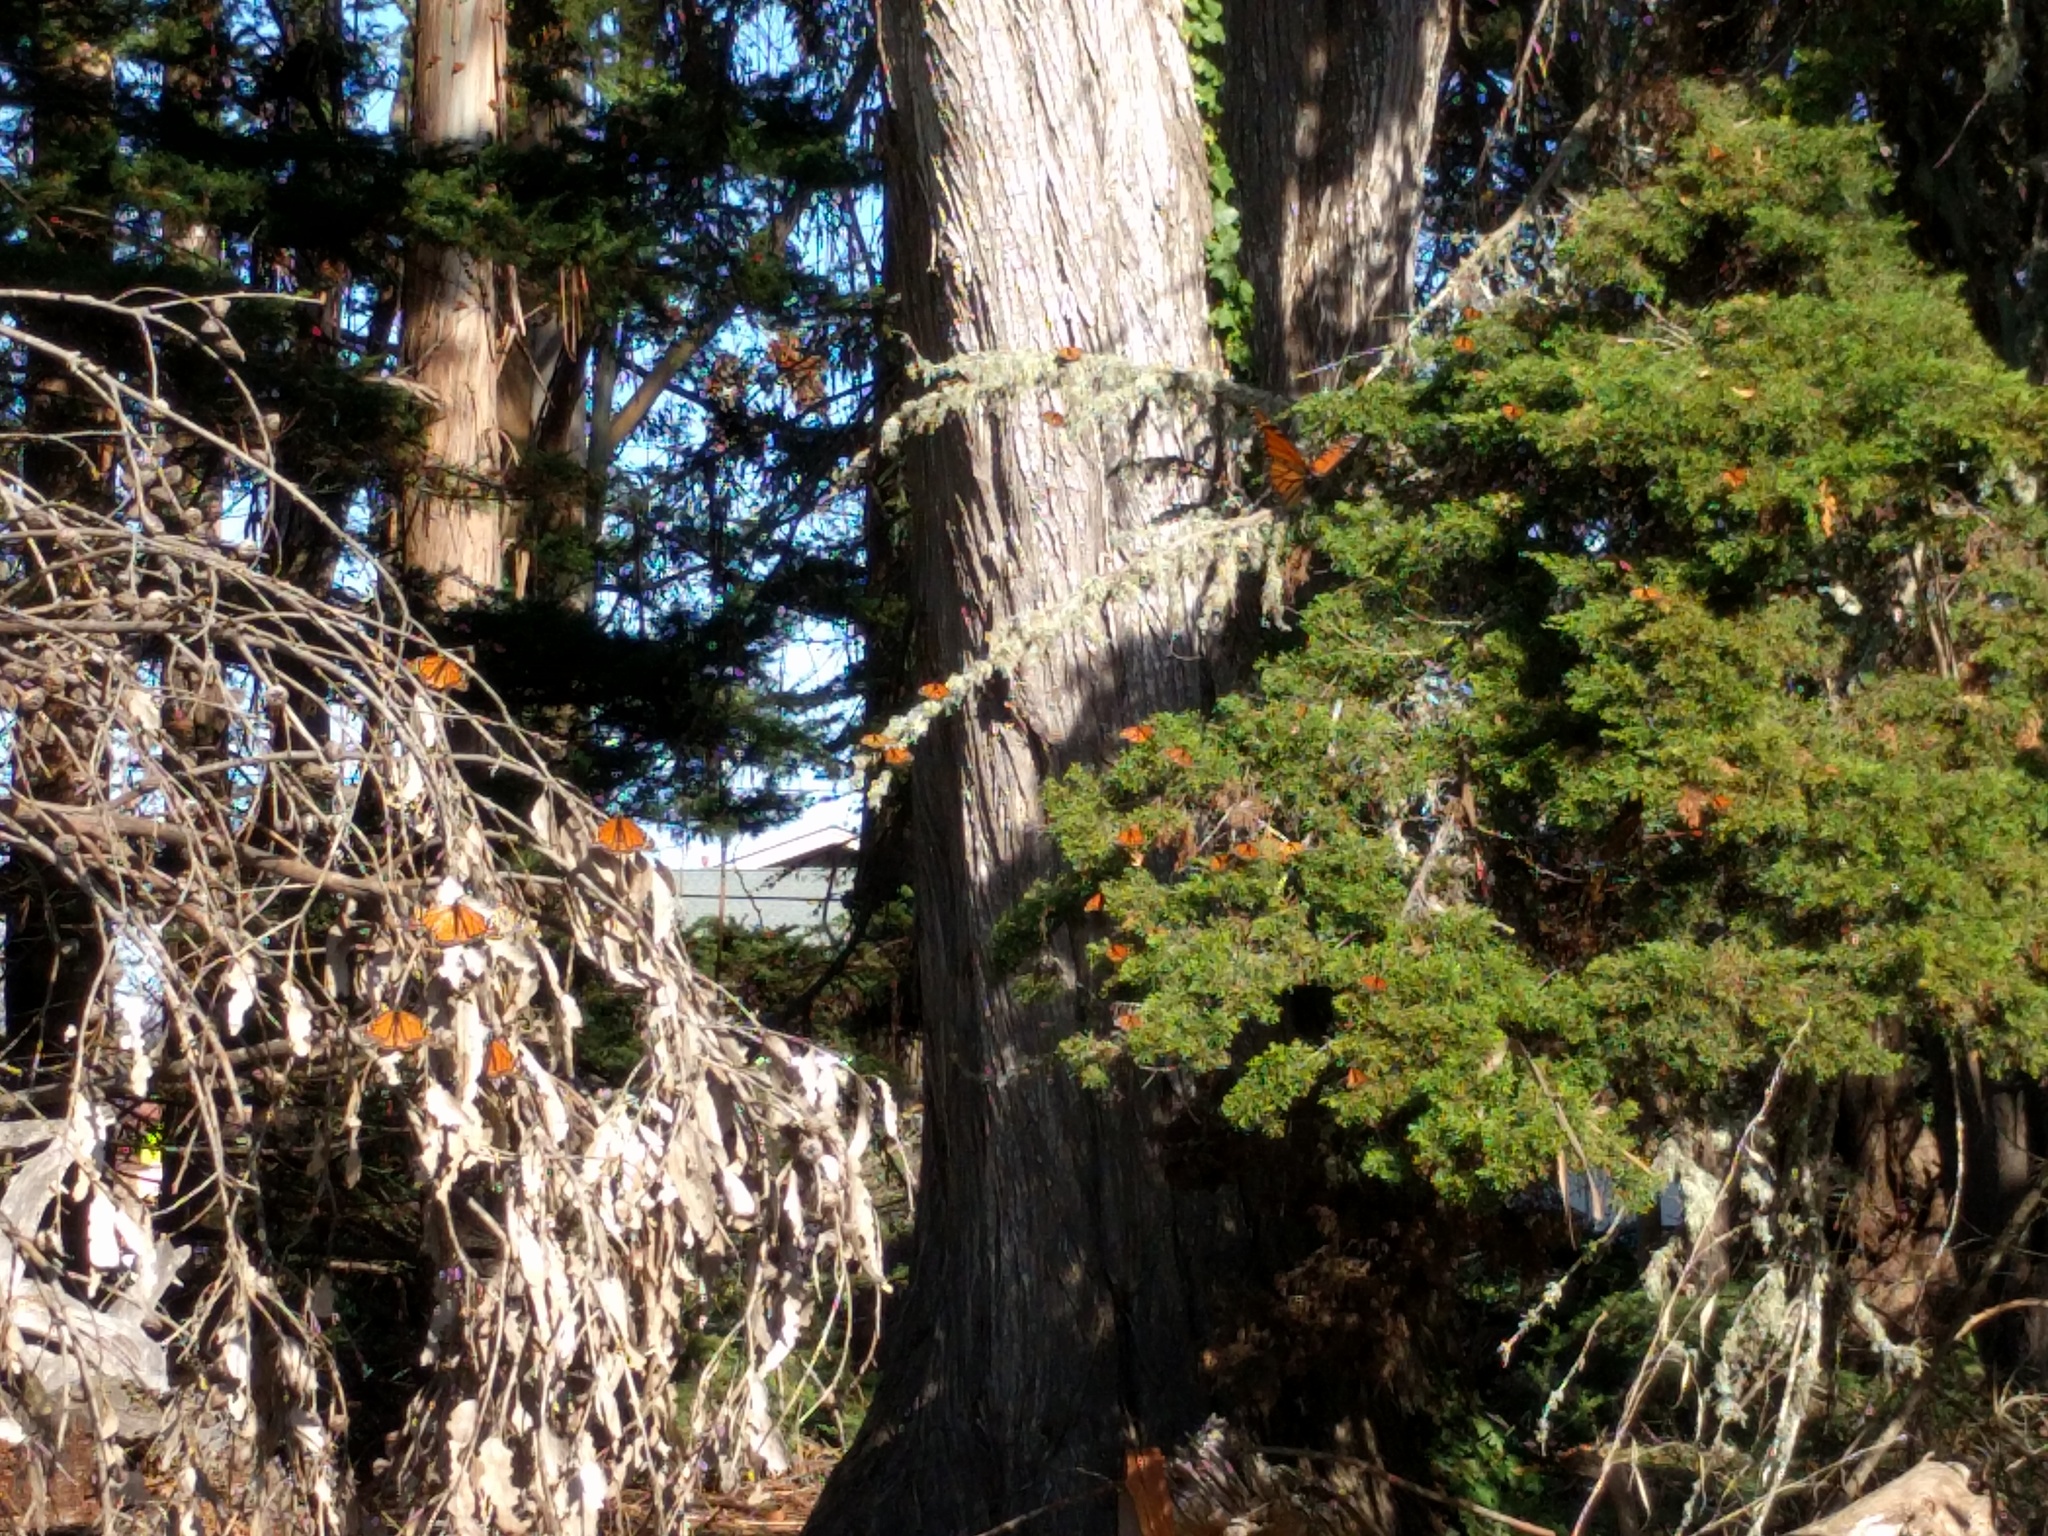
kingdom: Animalia
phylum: Arthropoda
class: Insecta
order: Lepidoptera
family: Nymphalidae
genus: Danaus
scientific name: Danaus plexippus
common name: Monarch
